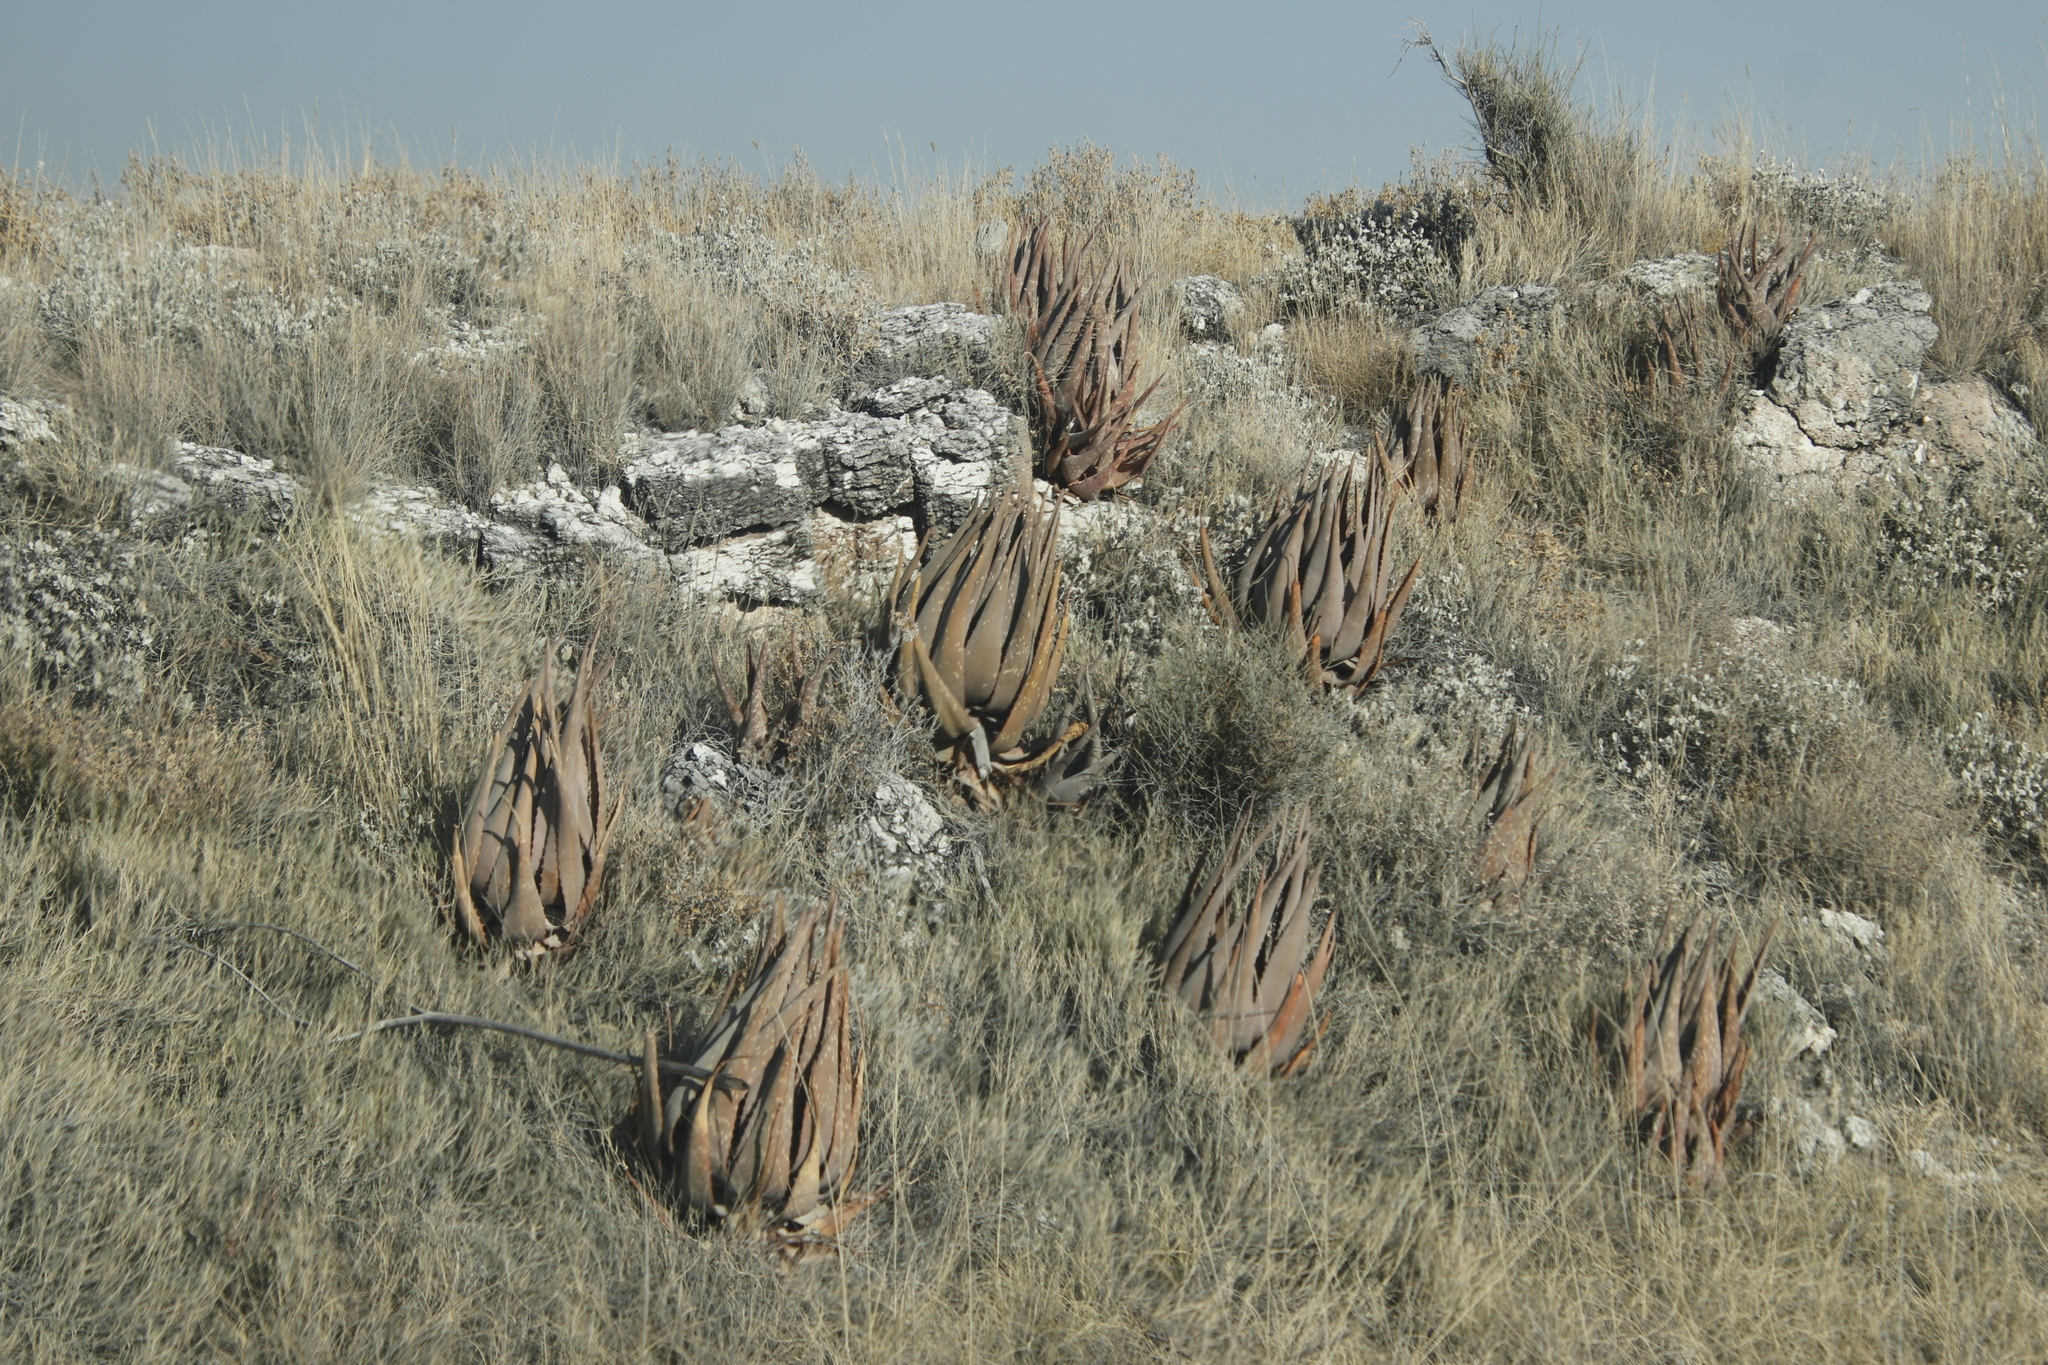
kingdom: Plantae
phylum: Tracheophyta
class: Liliopsida
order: Asparagales
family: Asphodelaceae
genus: Aloe
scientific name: Aloe esculenta
